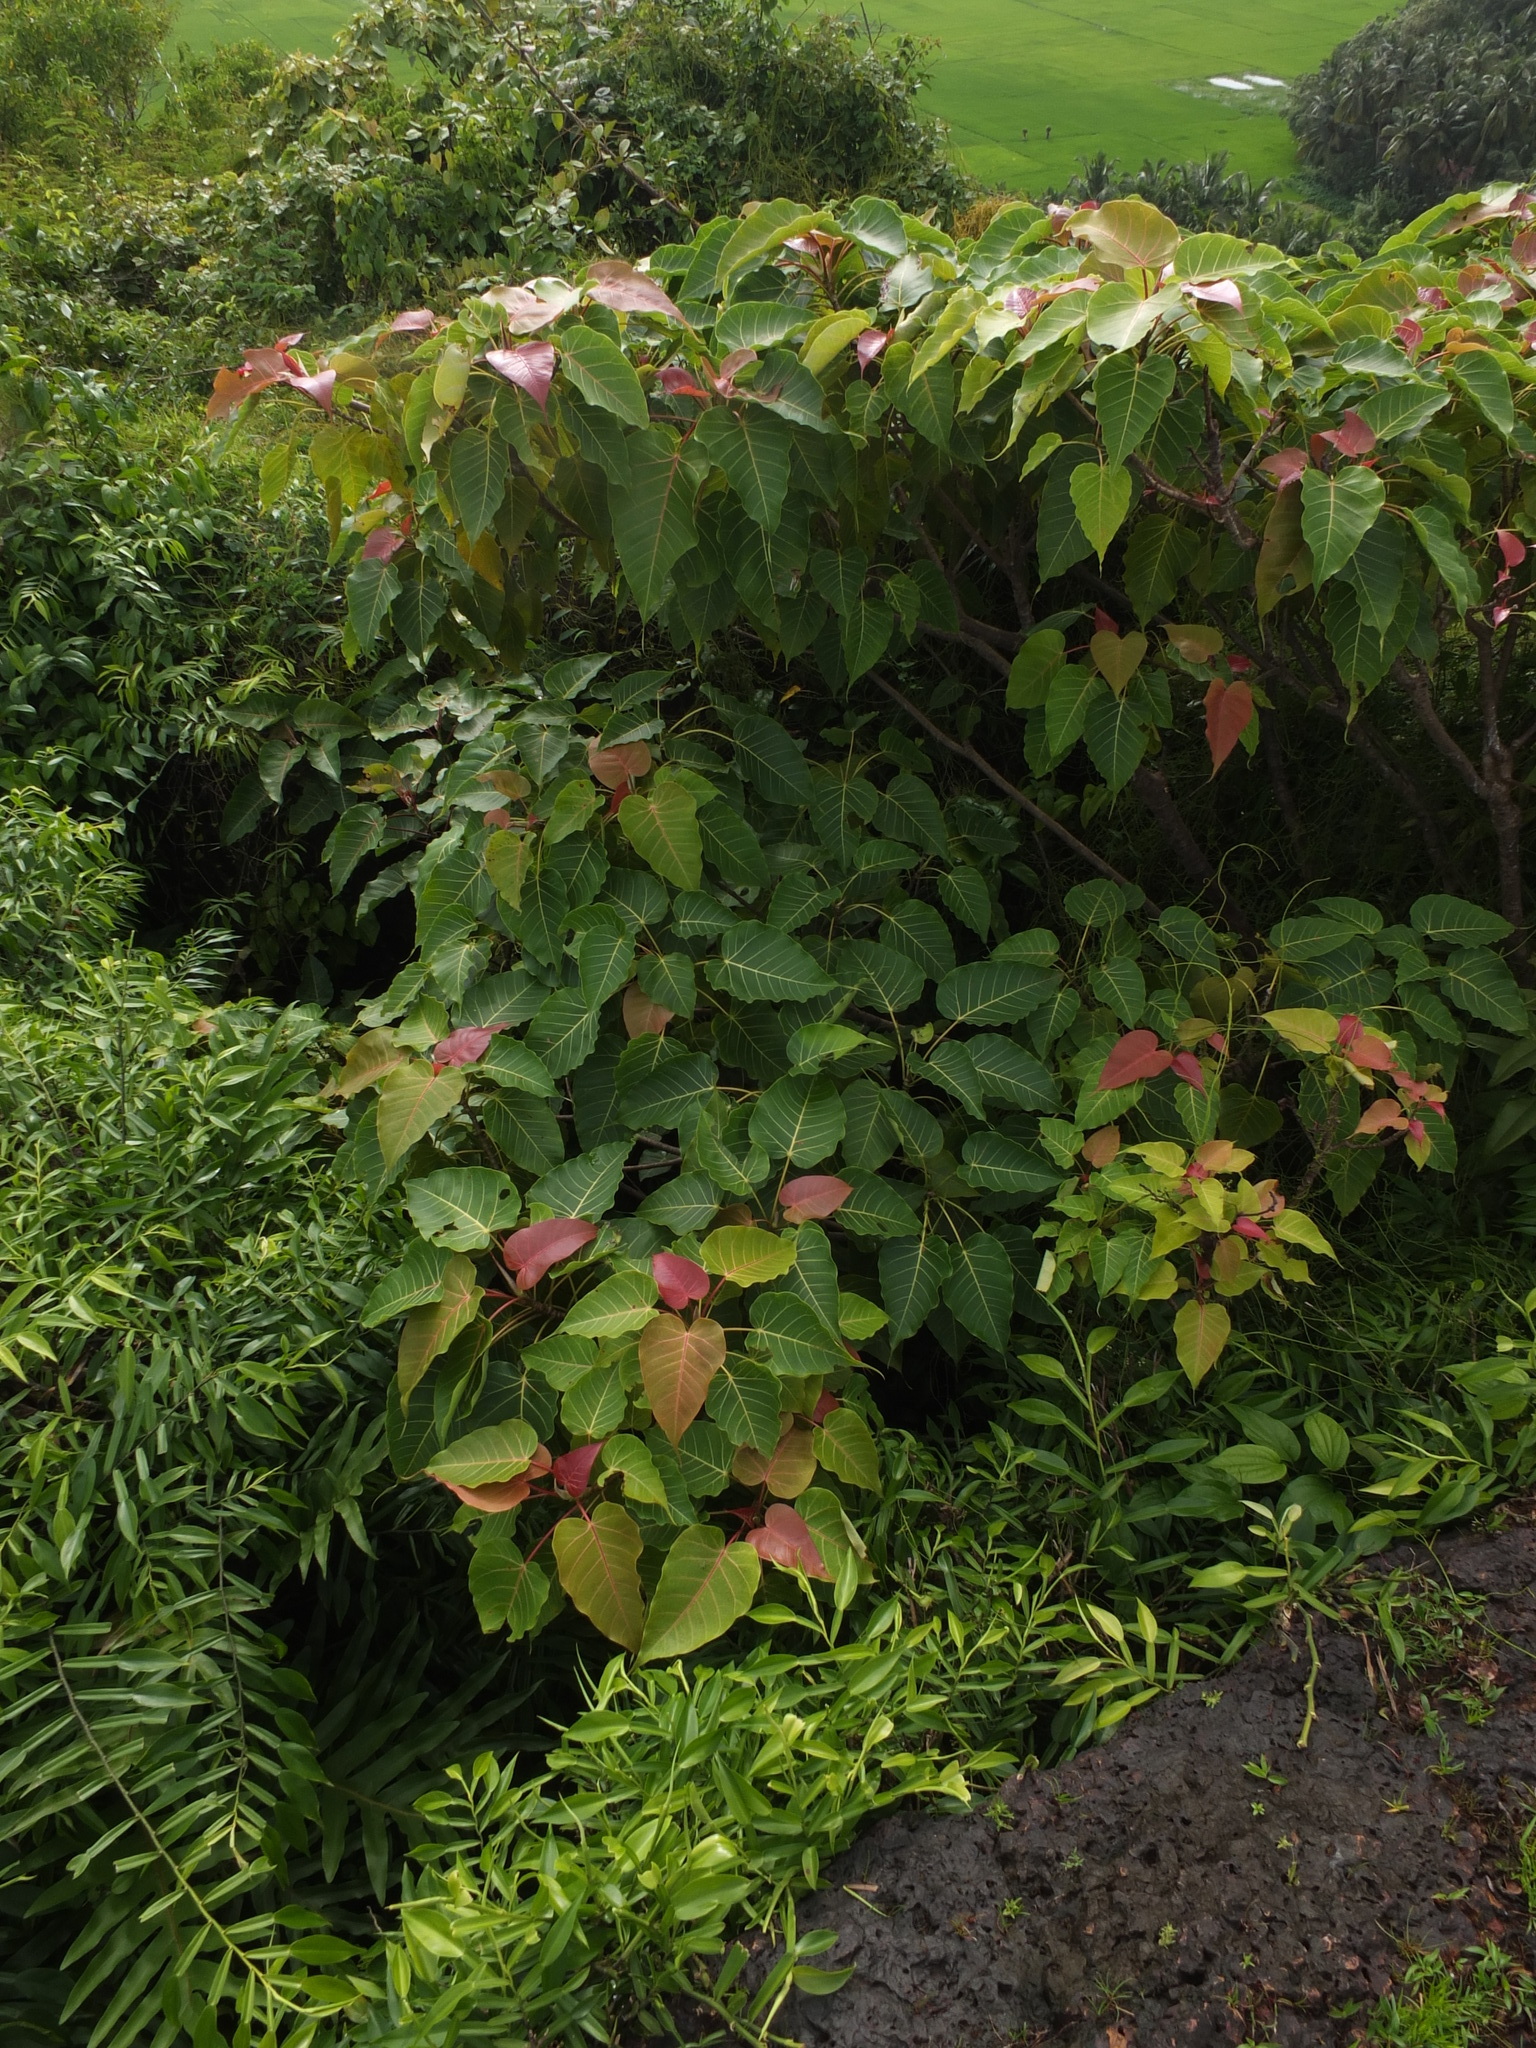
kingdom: Plantae
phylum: Tracheophyta
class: Magnoliopsida
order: Rosales
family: Moraceae
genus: Ficus
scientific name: Ficus arnottiana
